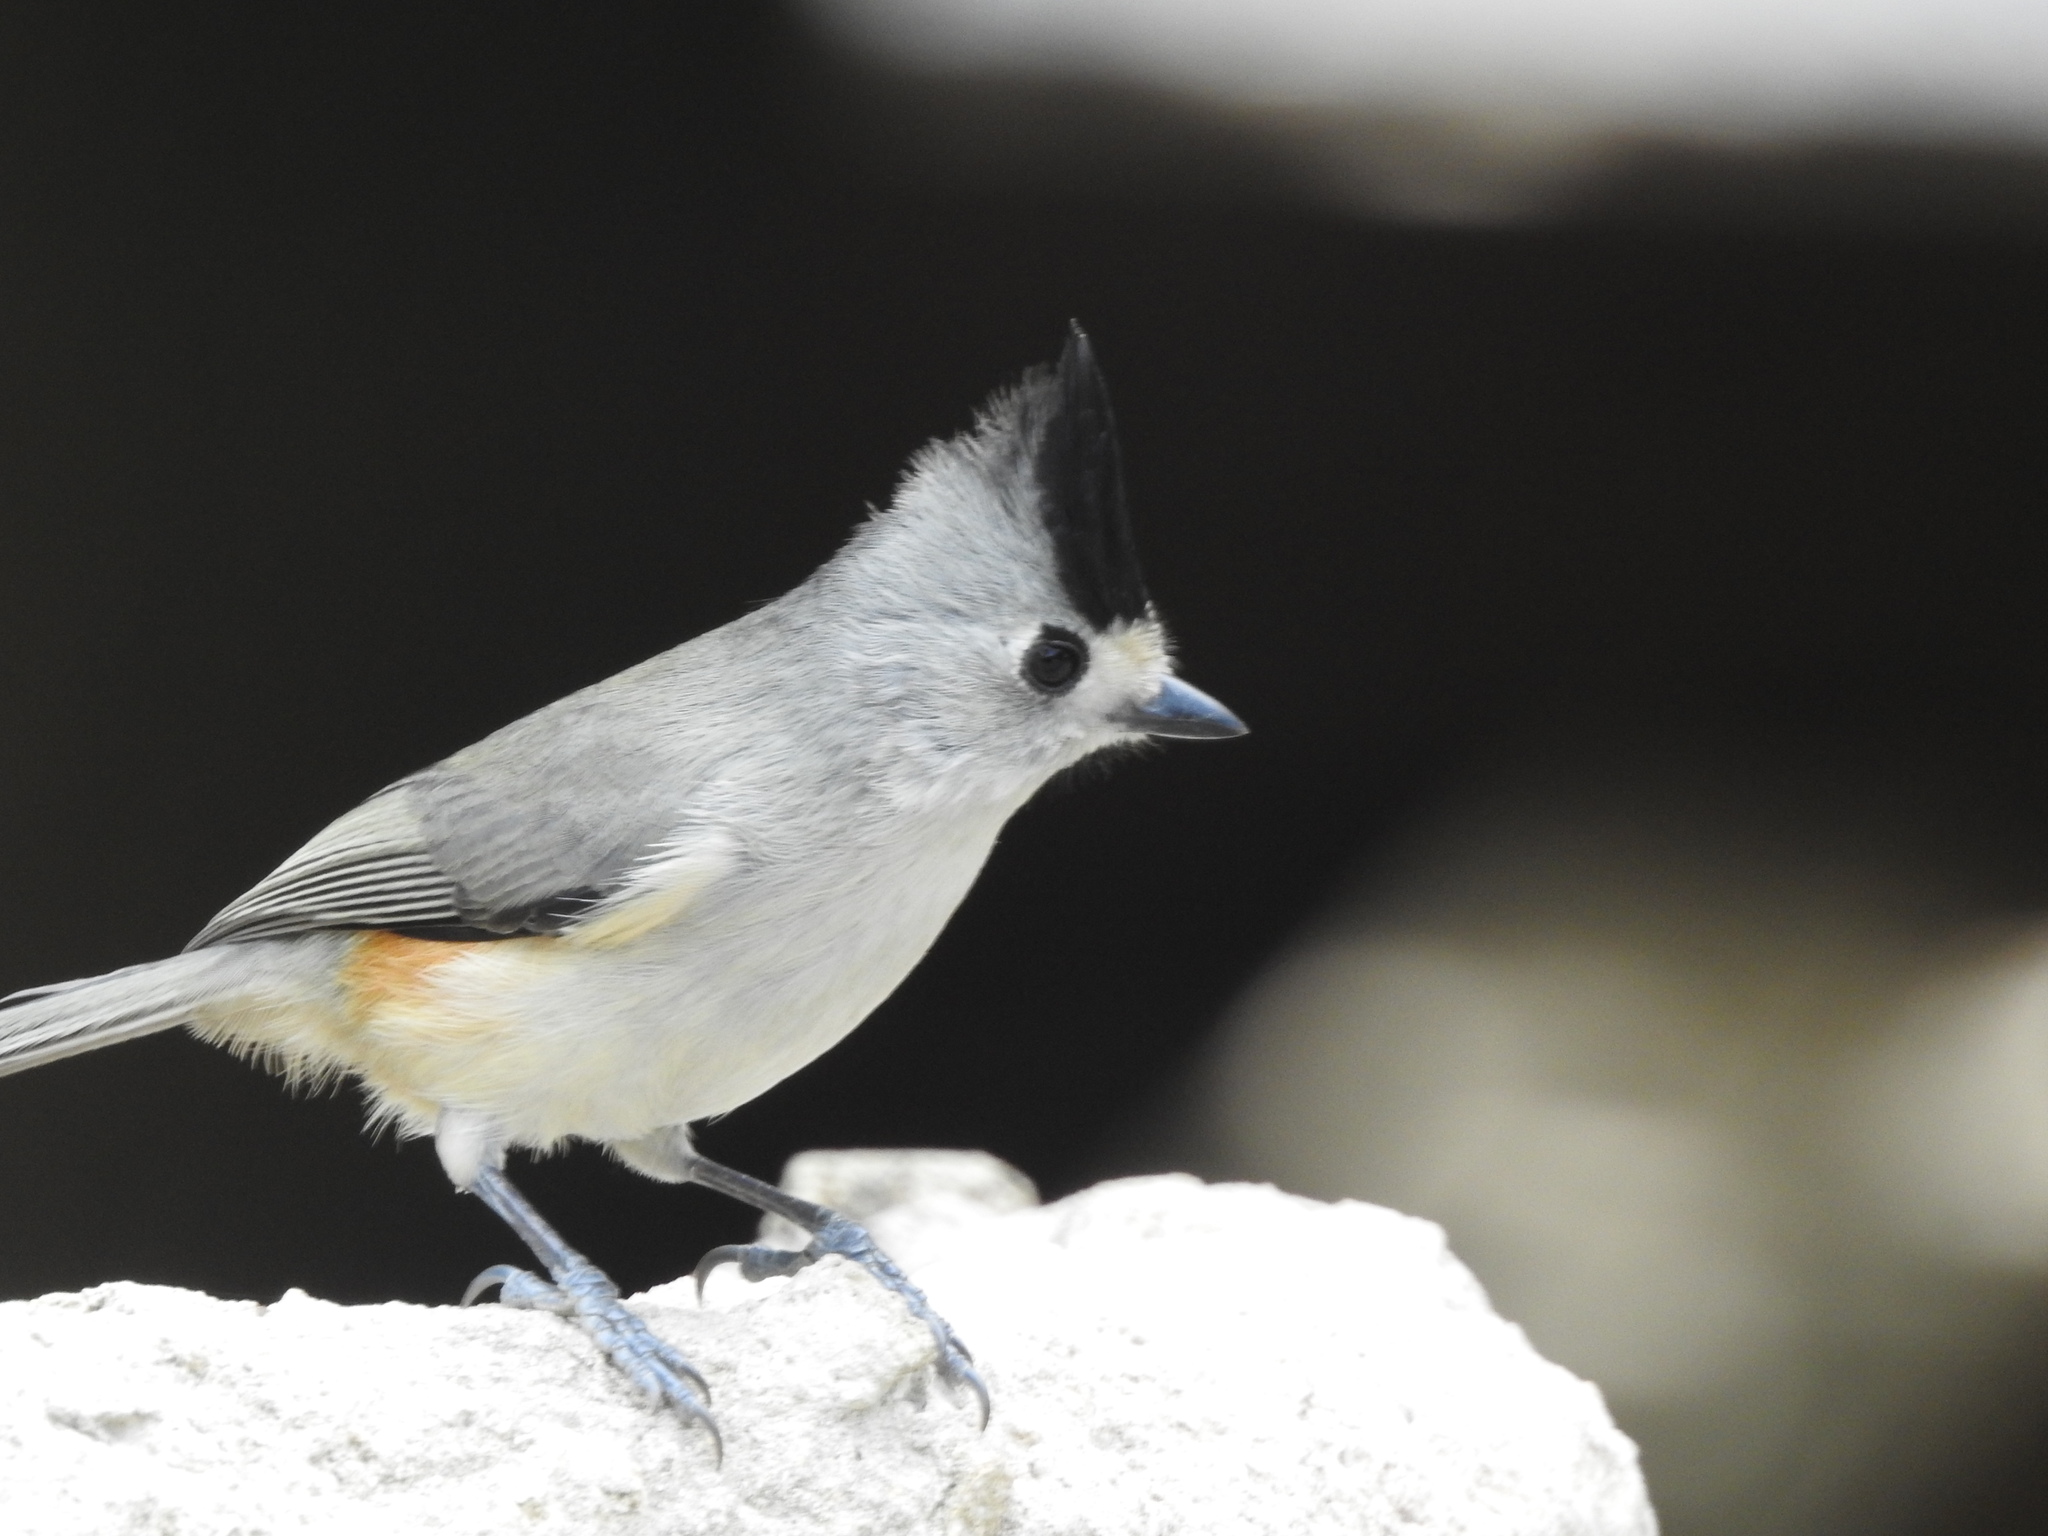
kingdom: Animalia
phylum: Chordata
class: Aves
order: Passeriformes
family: Paridae
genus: Baeolophus
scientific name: Baeolophus atricristatus
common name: Black-crested titmouse
